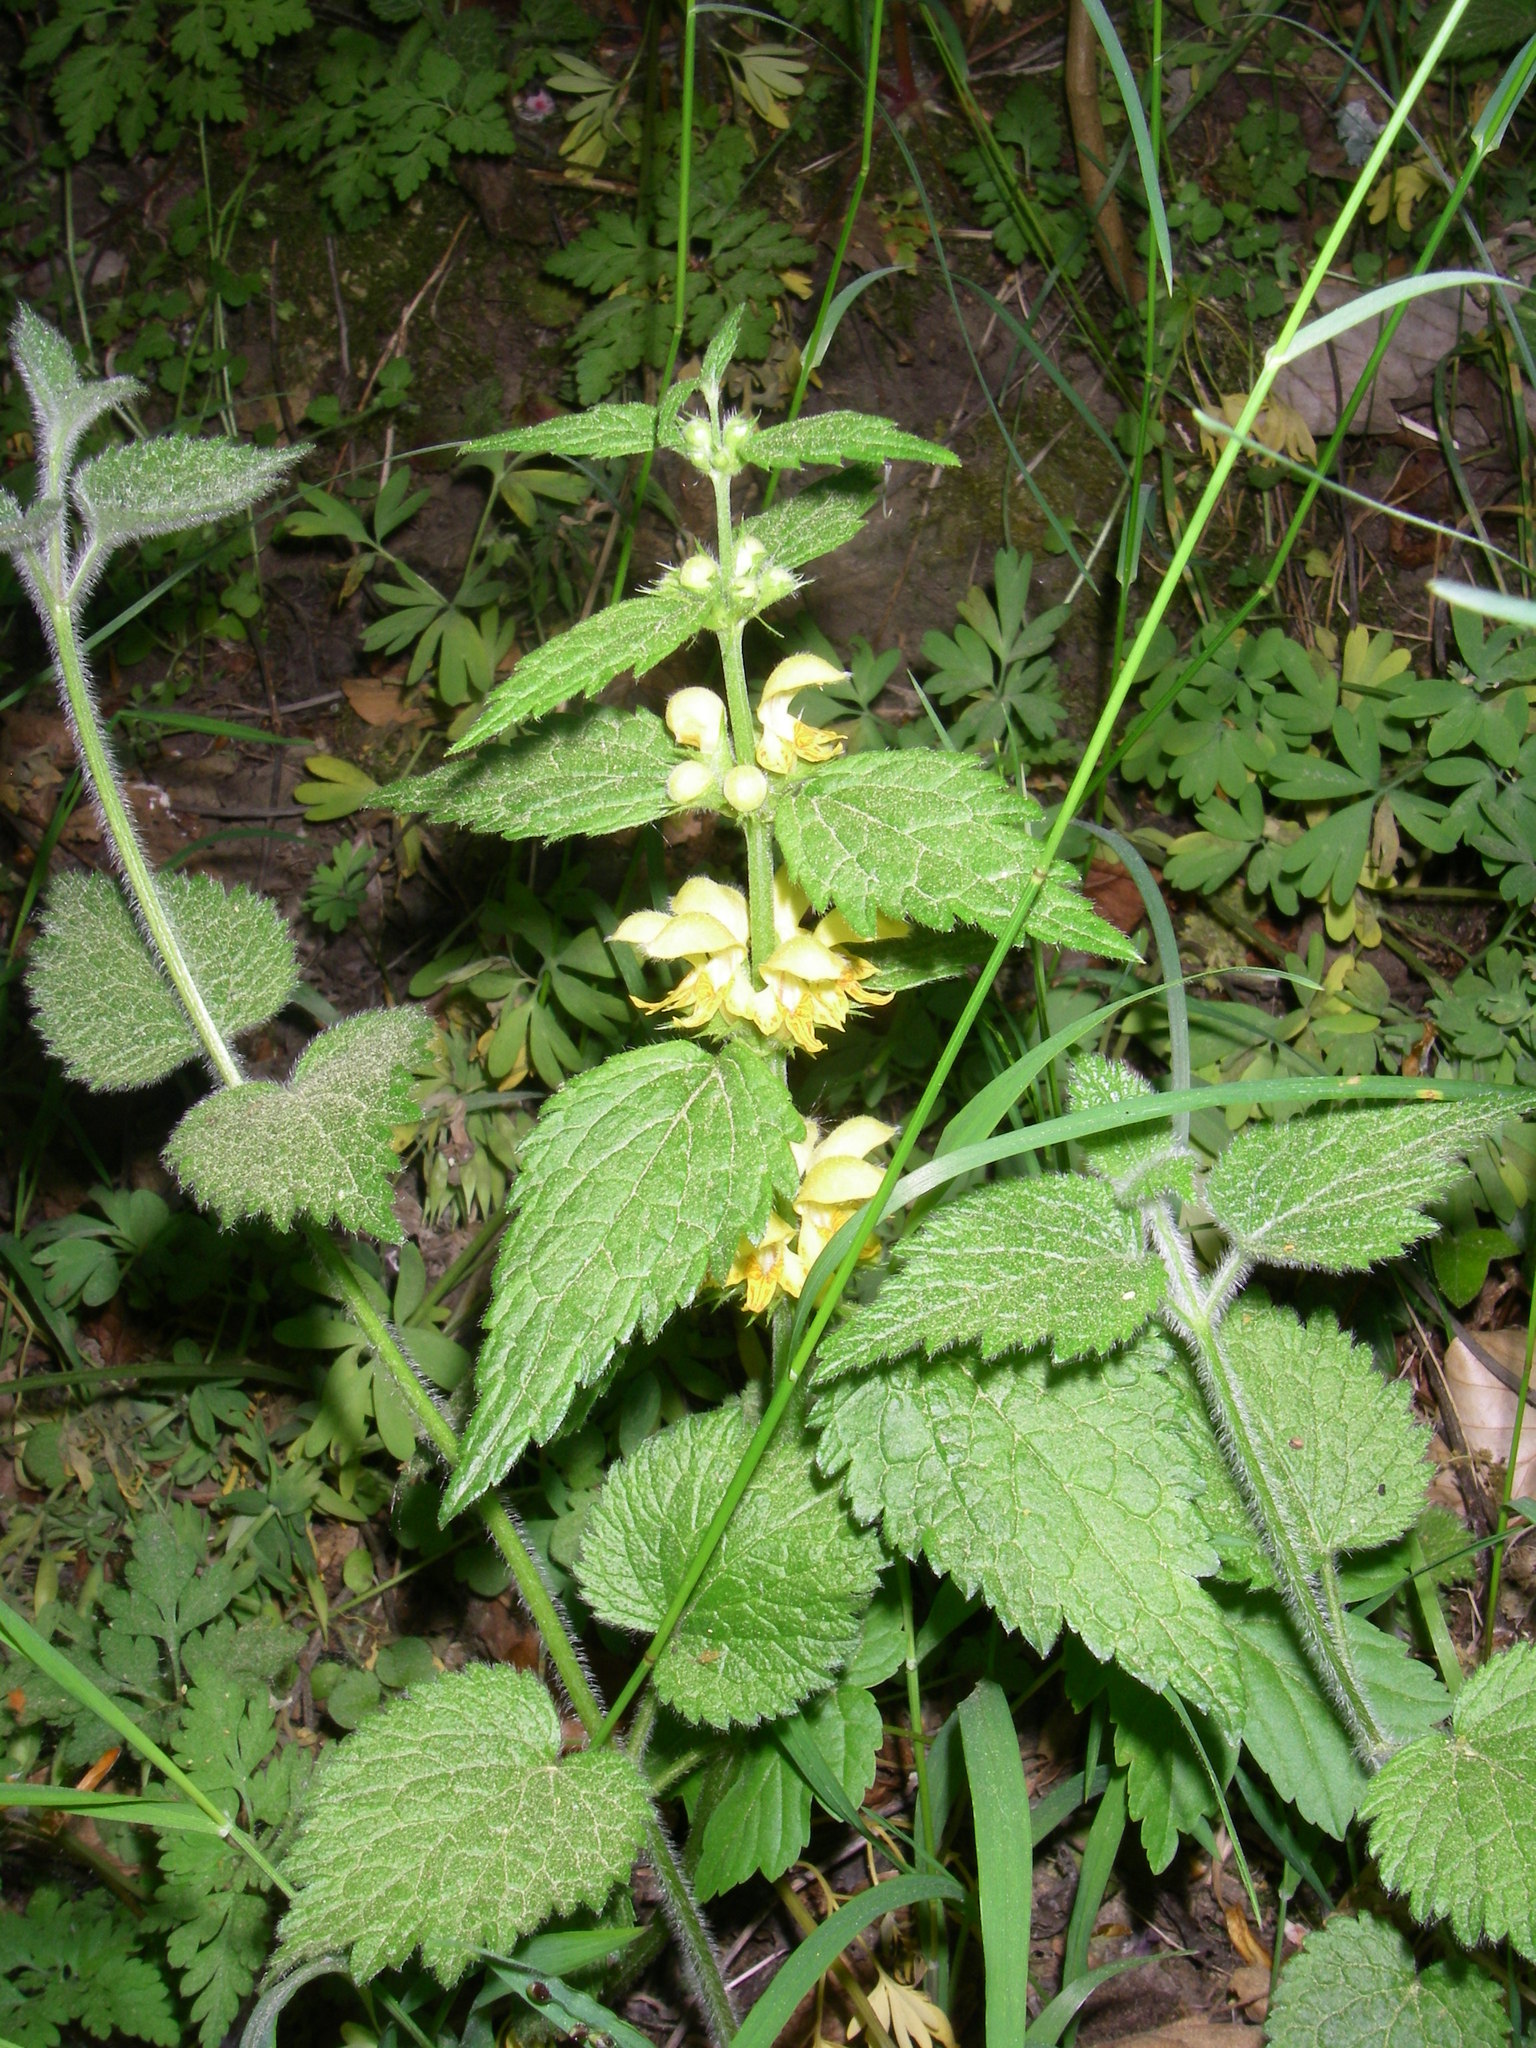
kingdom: Plantae
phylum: Tracheophyta
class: Magnoliopsida
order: Lamiales
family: Lamiaceae
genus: Lamium
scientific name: Lamium galeobdolon
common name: Yellow archangel
